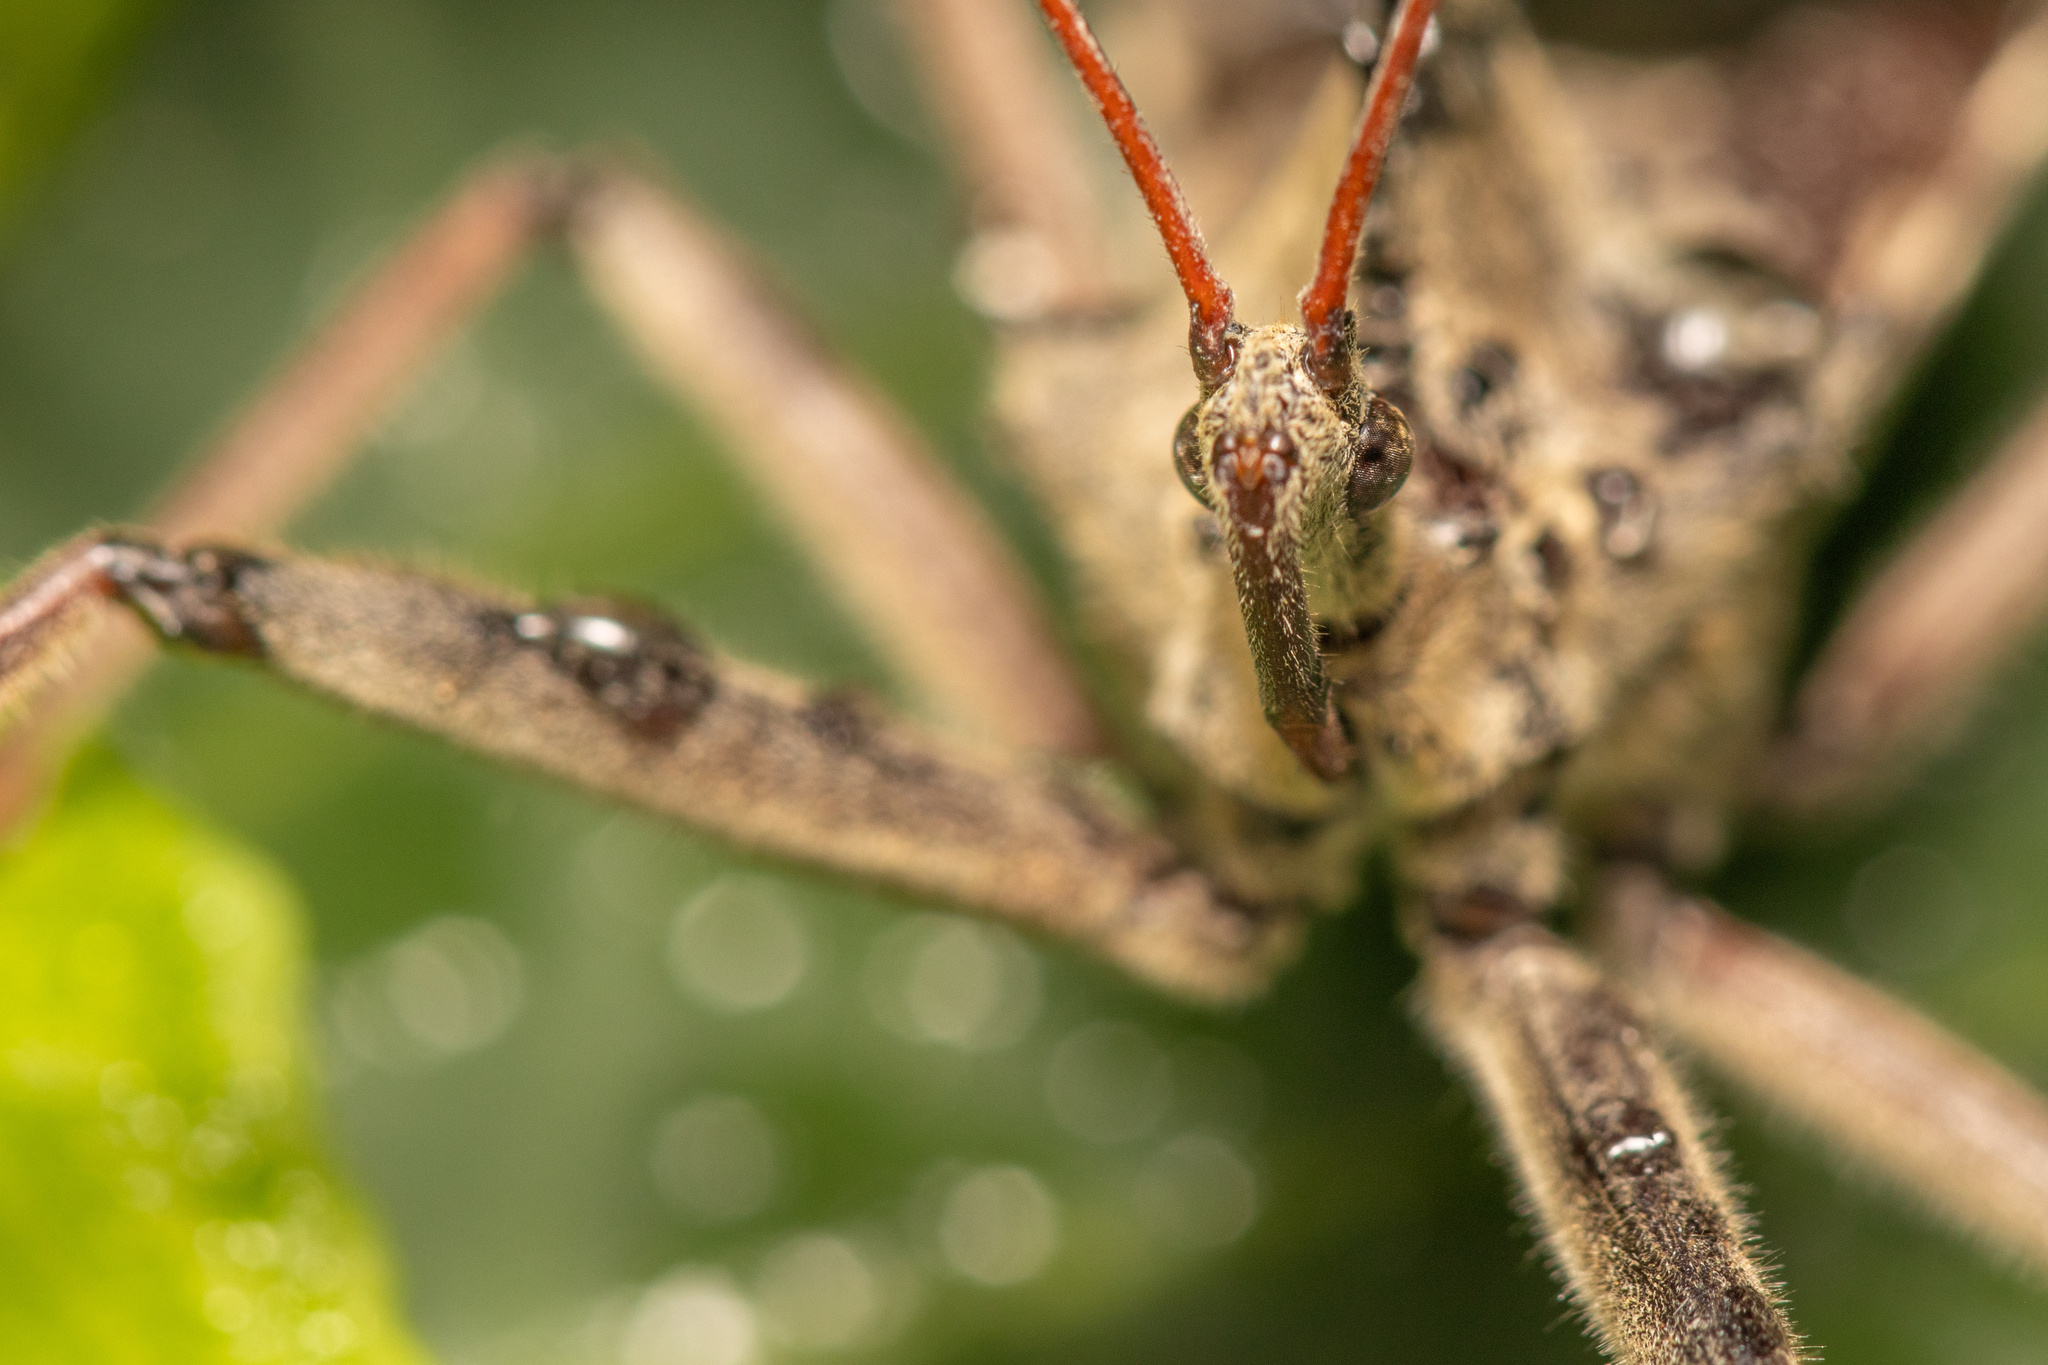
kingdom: Animalia
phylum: Arthropoda
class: Insecta
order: Hemiptera
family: Reduviidae
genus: Arilus
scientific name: Arilus cristatus
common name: North american wheel bug
